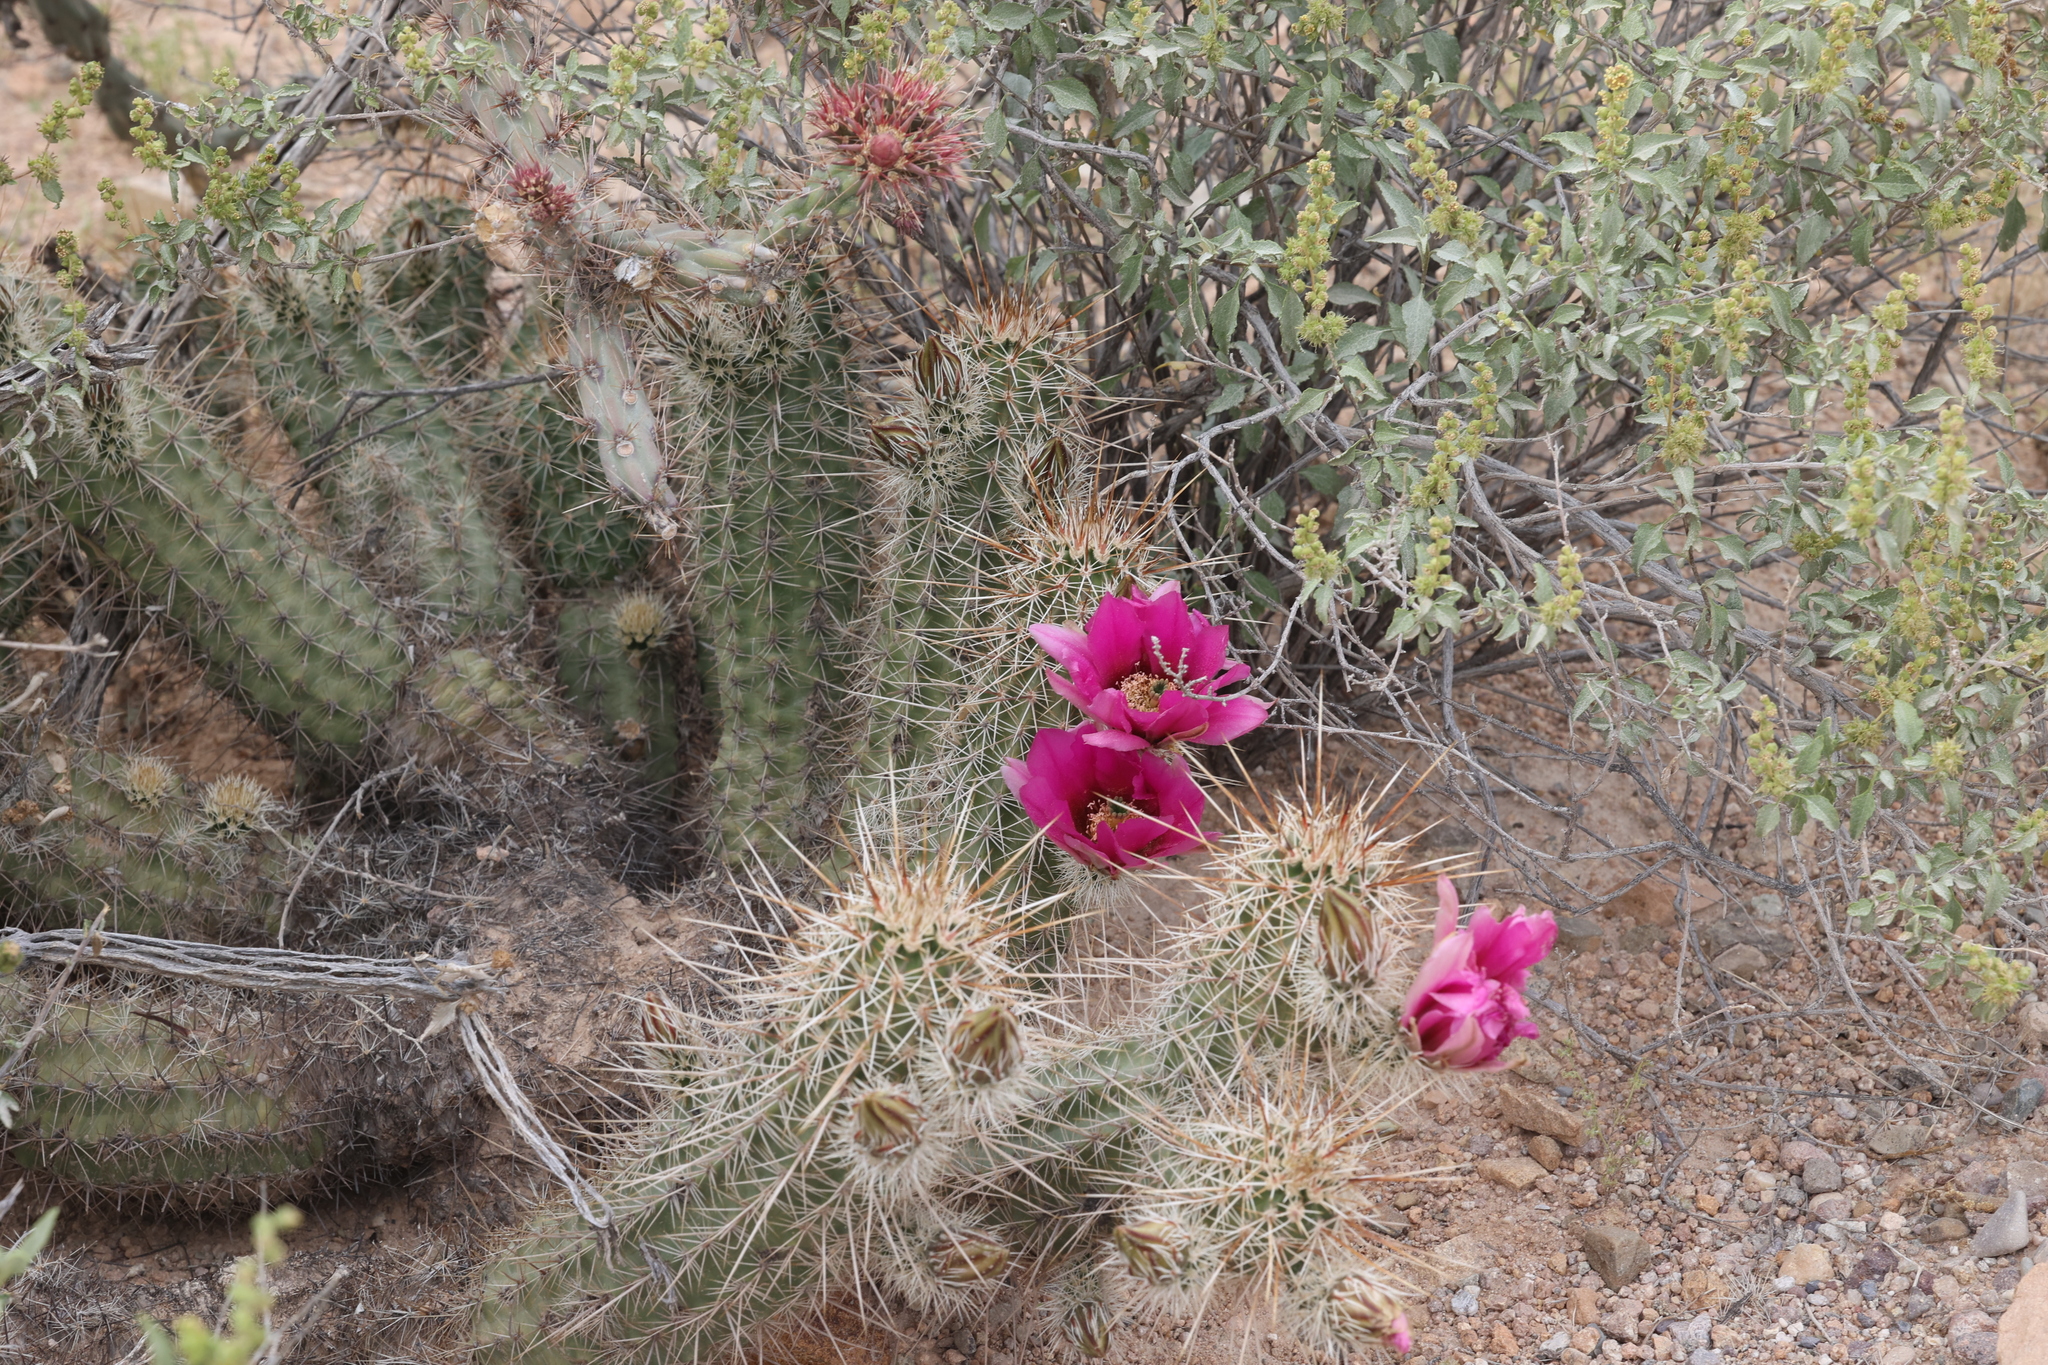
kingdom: Plantae
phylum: Tracheophyta
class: Magnoliopsida
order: Caryophyllales
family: Cactaceae
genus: Echinocereus
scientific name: Echinocereus engelmannii
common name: Engelmann's hedgehog cactus
